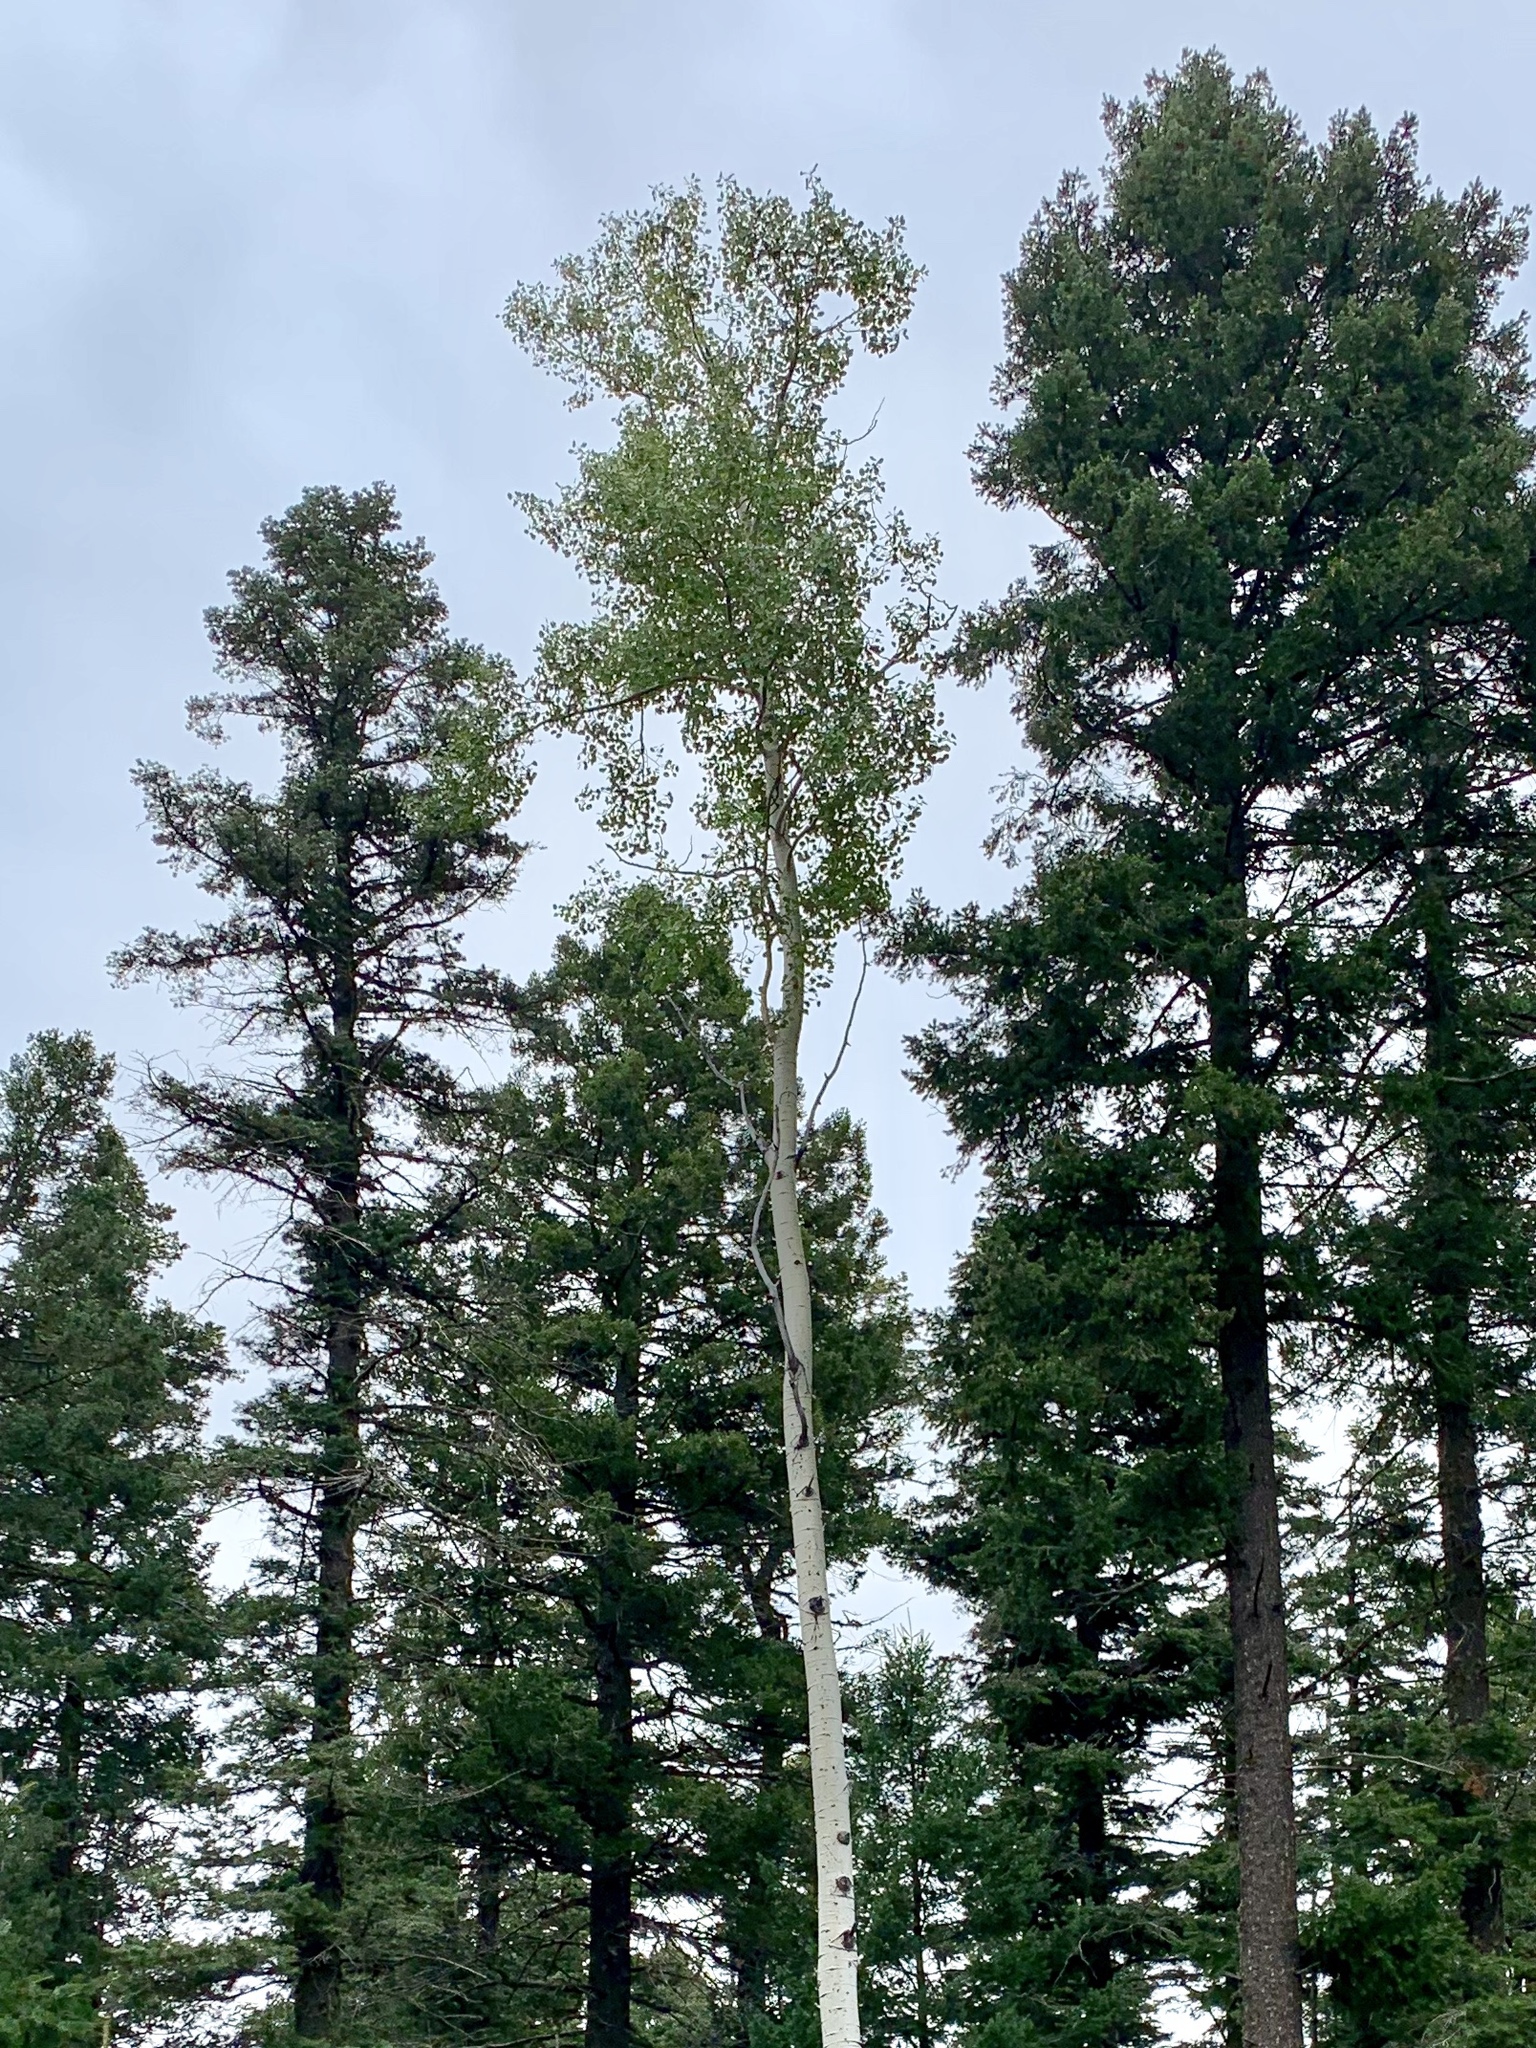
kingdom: Plantae
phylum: Tracheophyta
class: Magnoliopsida
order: Malpighiales
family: Salicaceae
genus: Populus
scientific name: Populus tremuloides
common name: Quaking aspen
